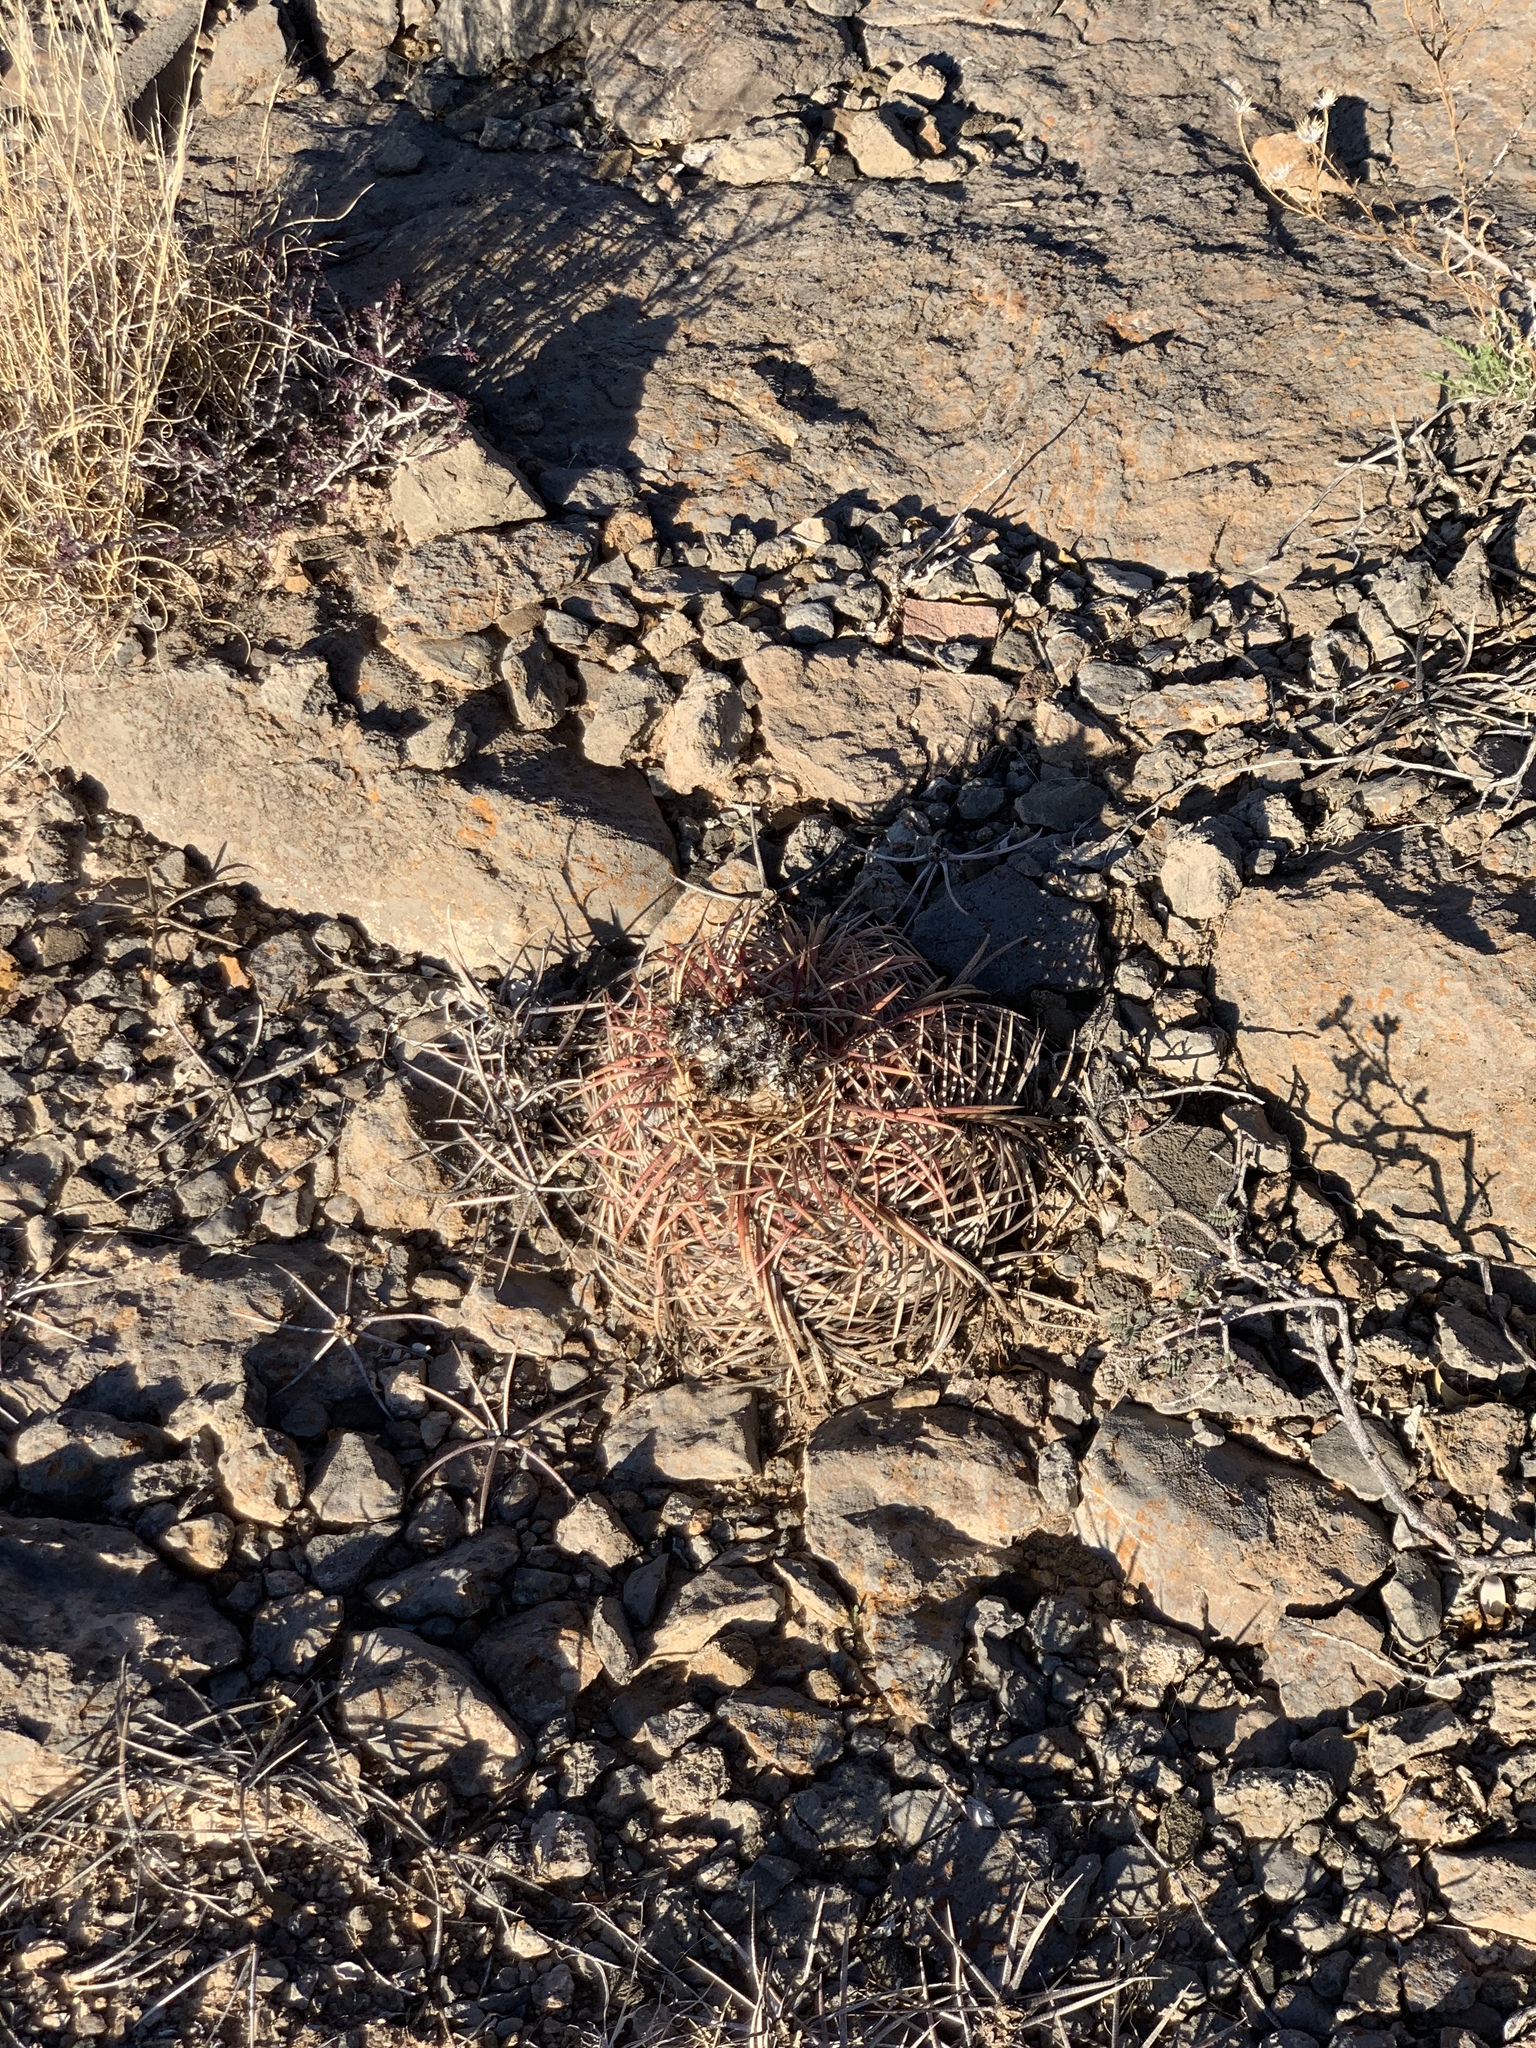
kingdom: Plantae
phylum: Tracheophyta
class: Magnoliopsida
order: Caryophyllales
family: Cactaceae
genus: Echinocactus
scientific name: Echinocactus horizonthalonius
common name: Devilshead
